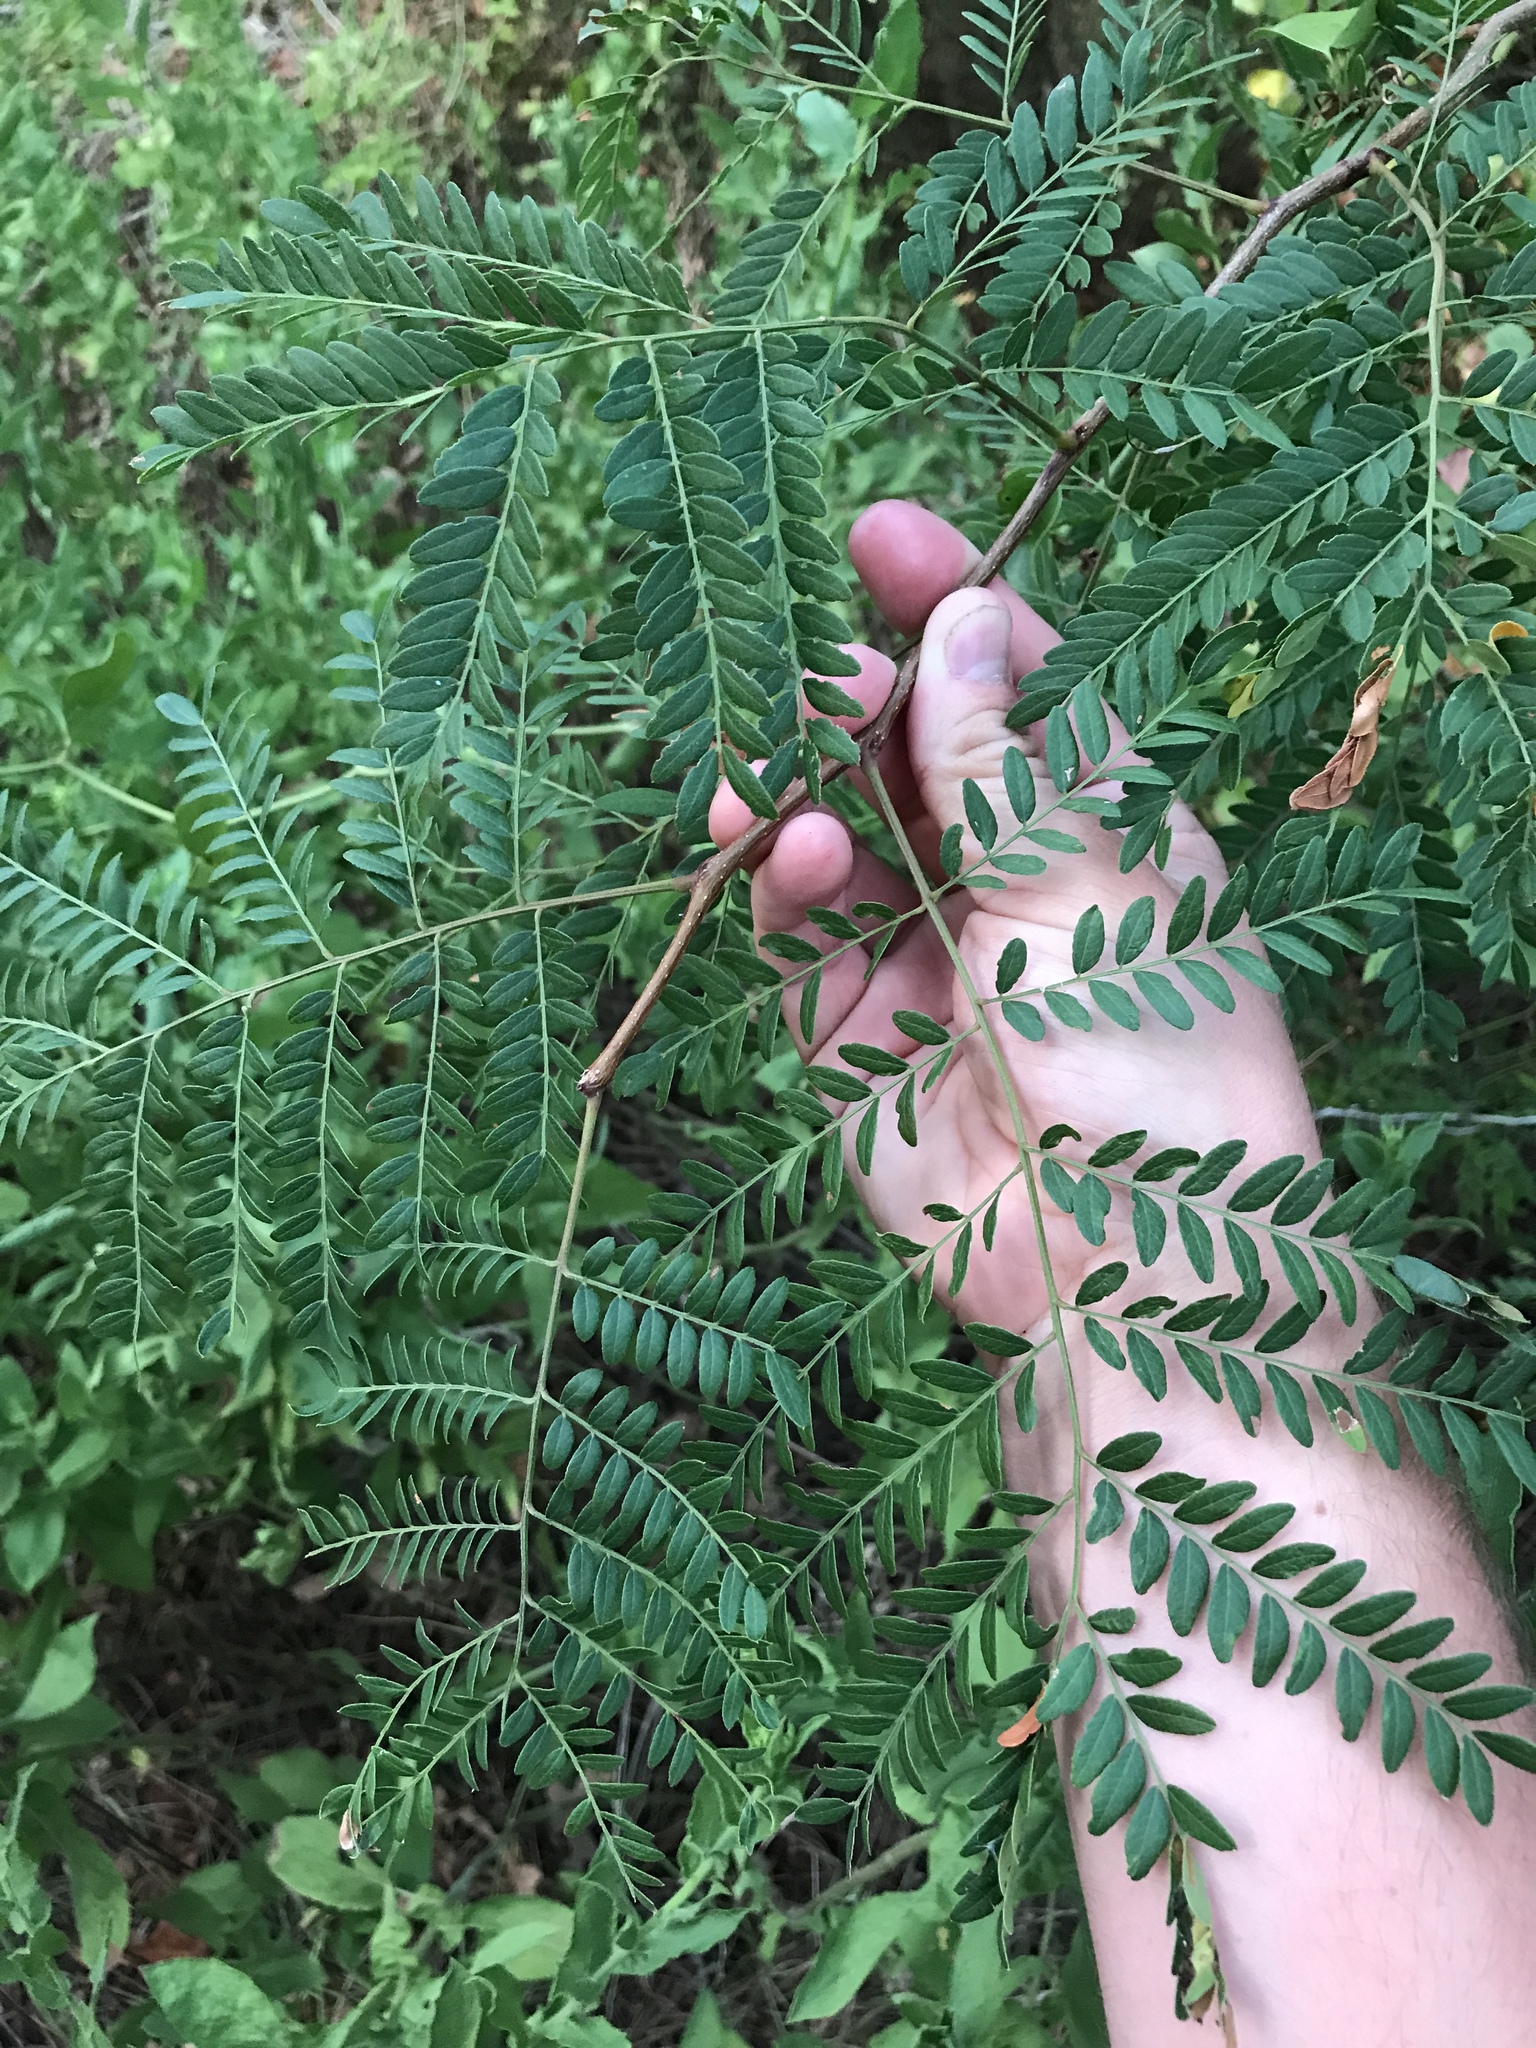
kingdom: Plantae
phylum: Tracheophyta
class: Magnoliopsida
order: Fabales
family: Fabaceae
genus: Gleditsia
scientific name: Gleditsia triacanthos
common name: Common honeylocust
